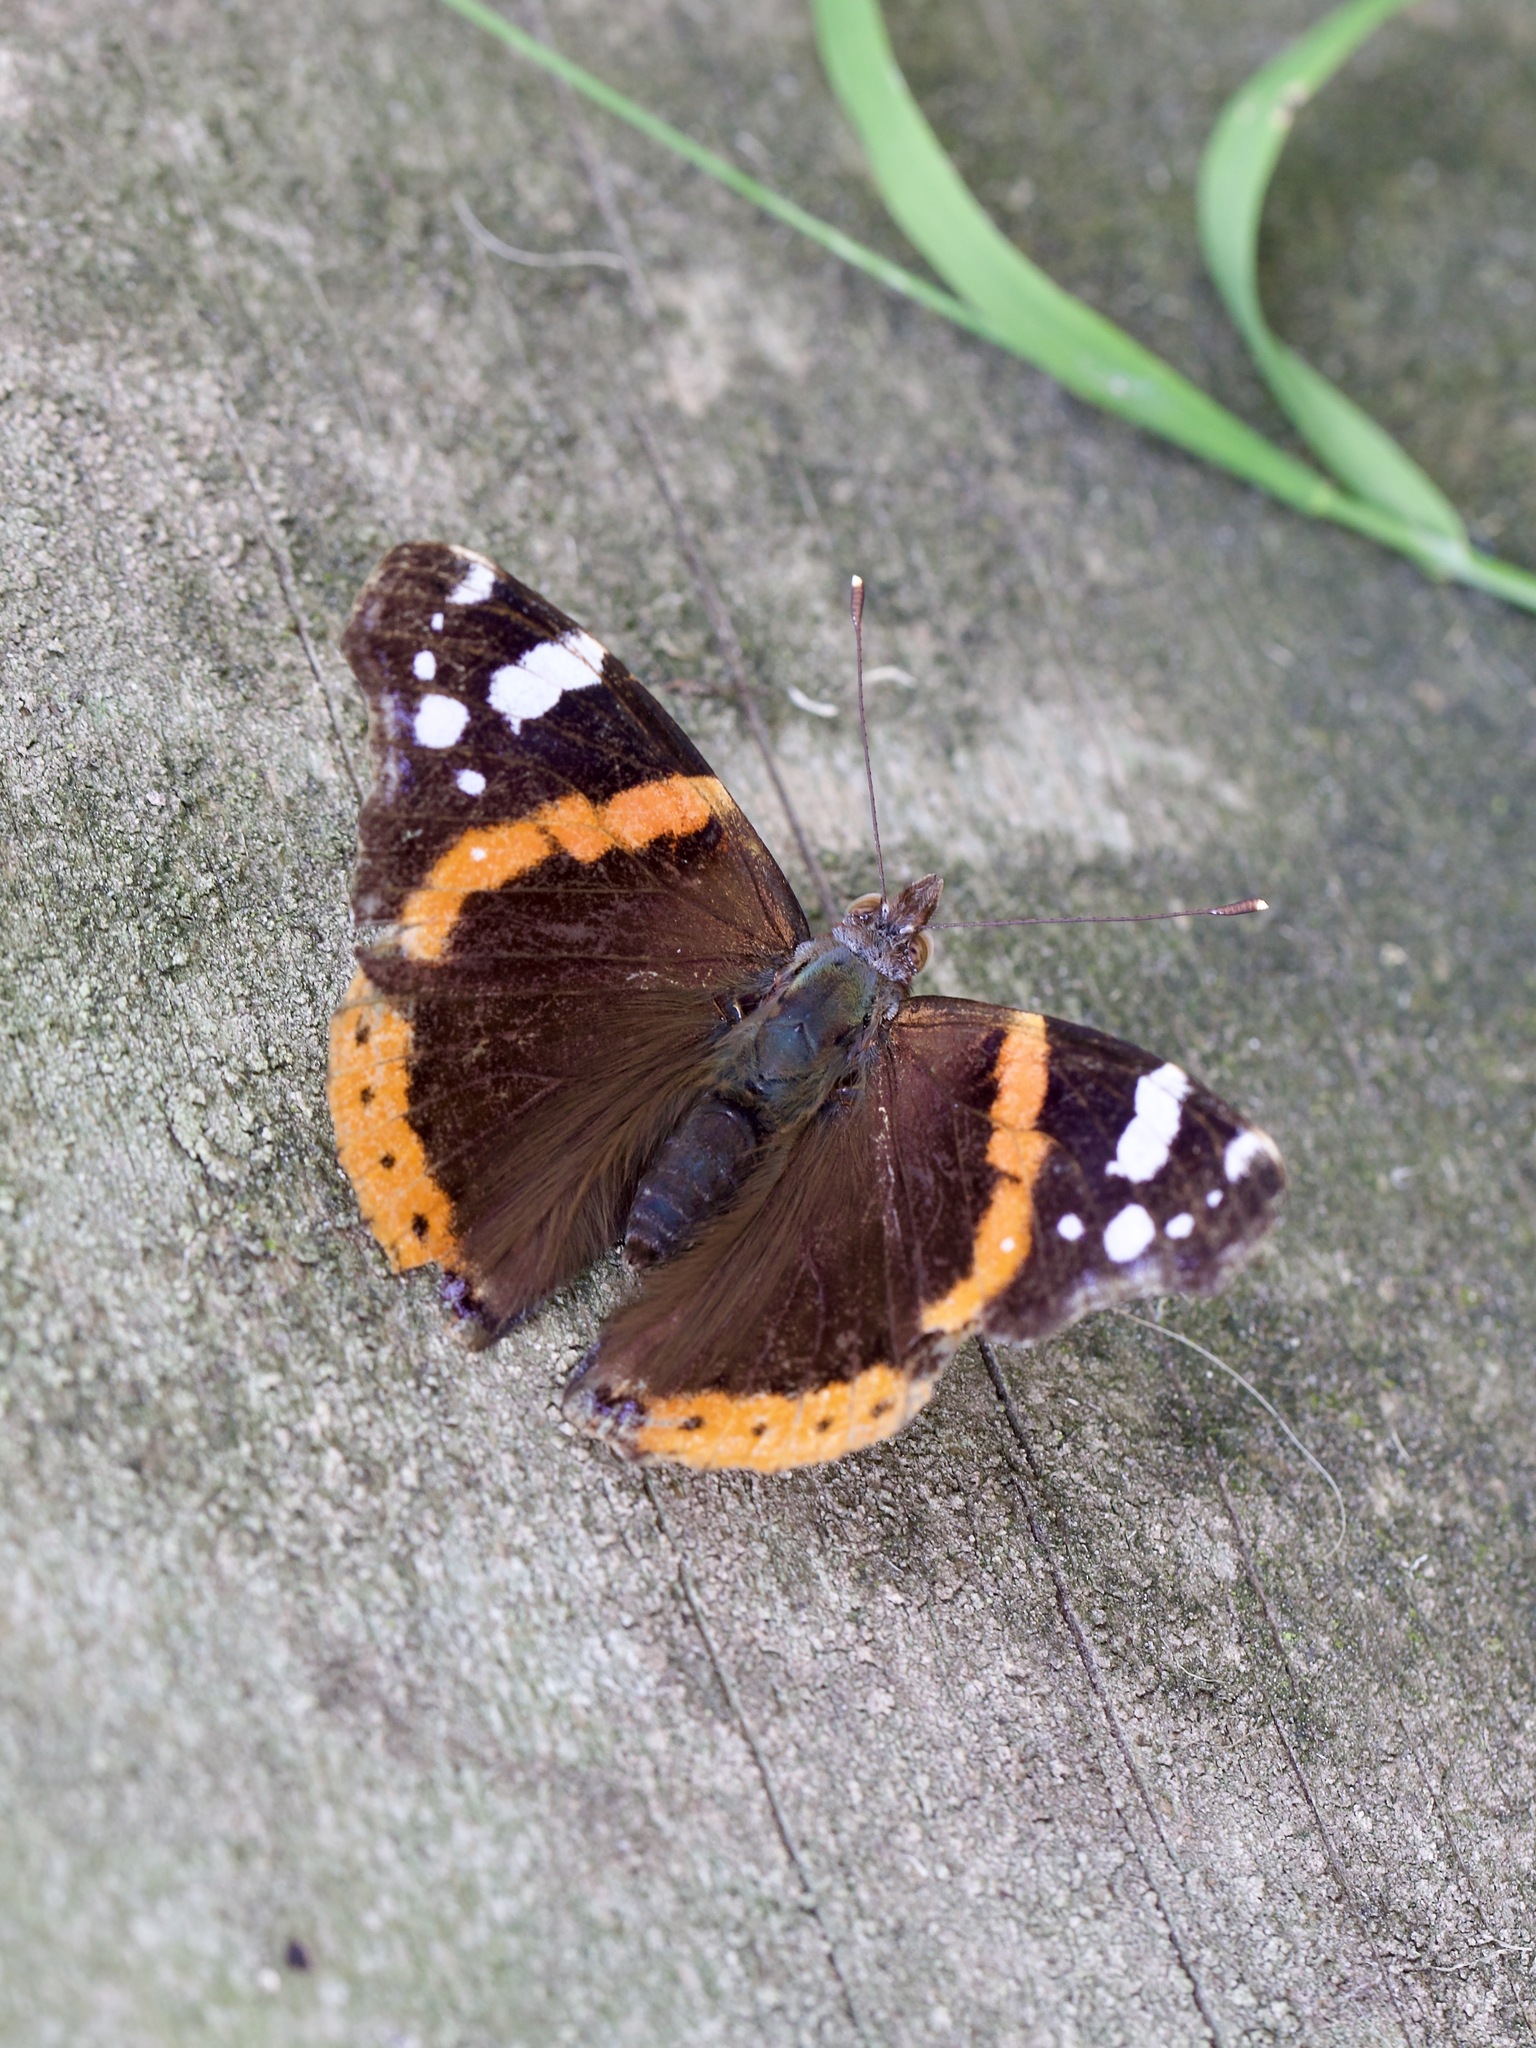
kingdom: Animalia
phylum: Arthropoda
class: Insecta
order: Lepidoptera
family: Nymphalidae
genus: Vanessa
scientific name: Vanessa atalanta
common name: Red admiral
